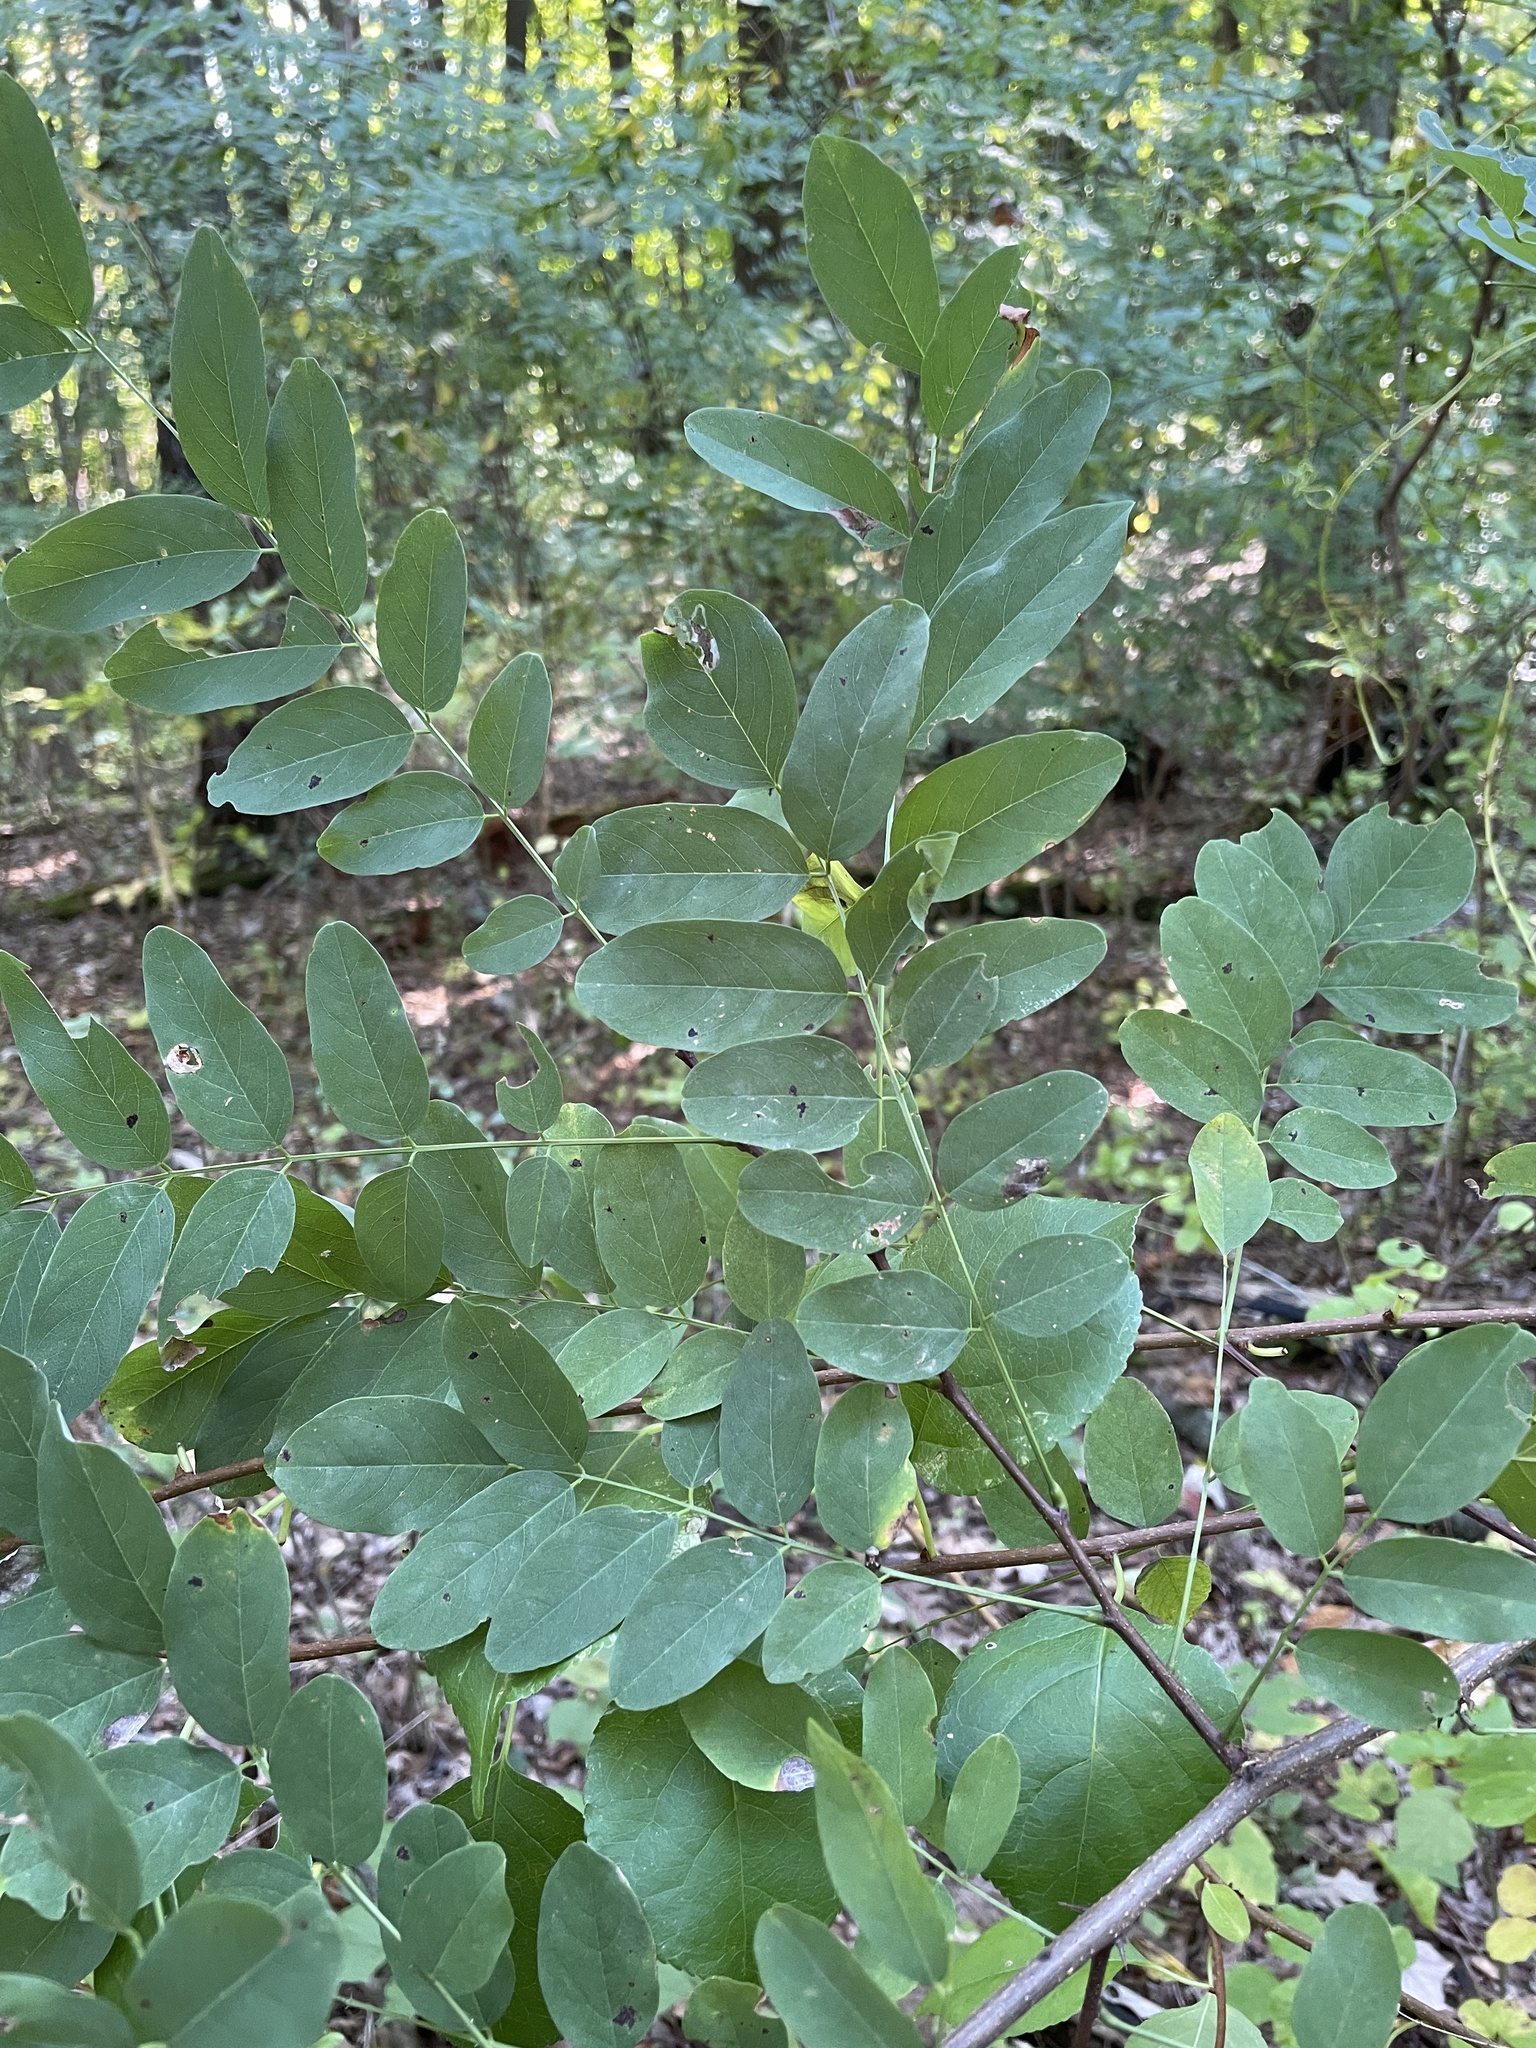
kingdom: Plantae
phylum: Tracheophyta
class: Magnoliopsida
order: Fabales
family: Fabaceae
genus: Robinia
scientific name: Robinia pseudoacacia
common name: Black locust
